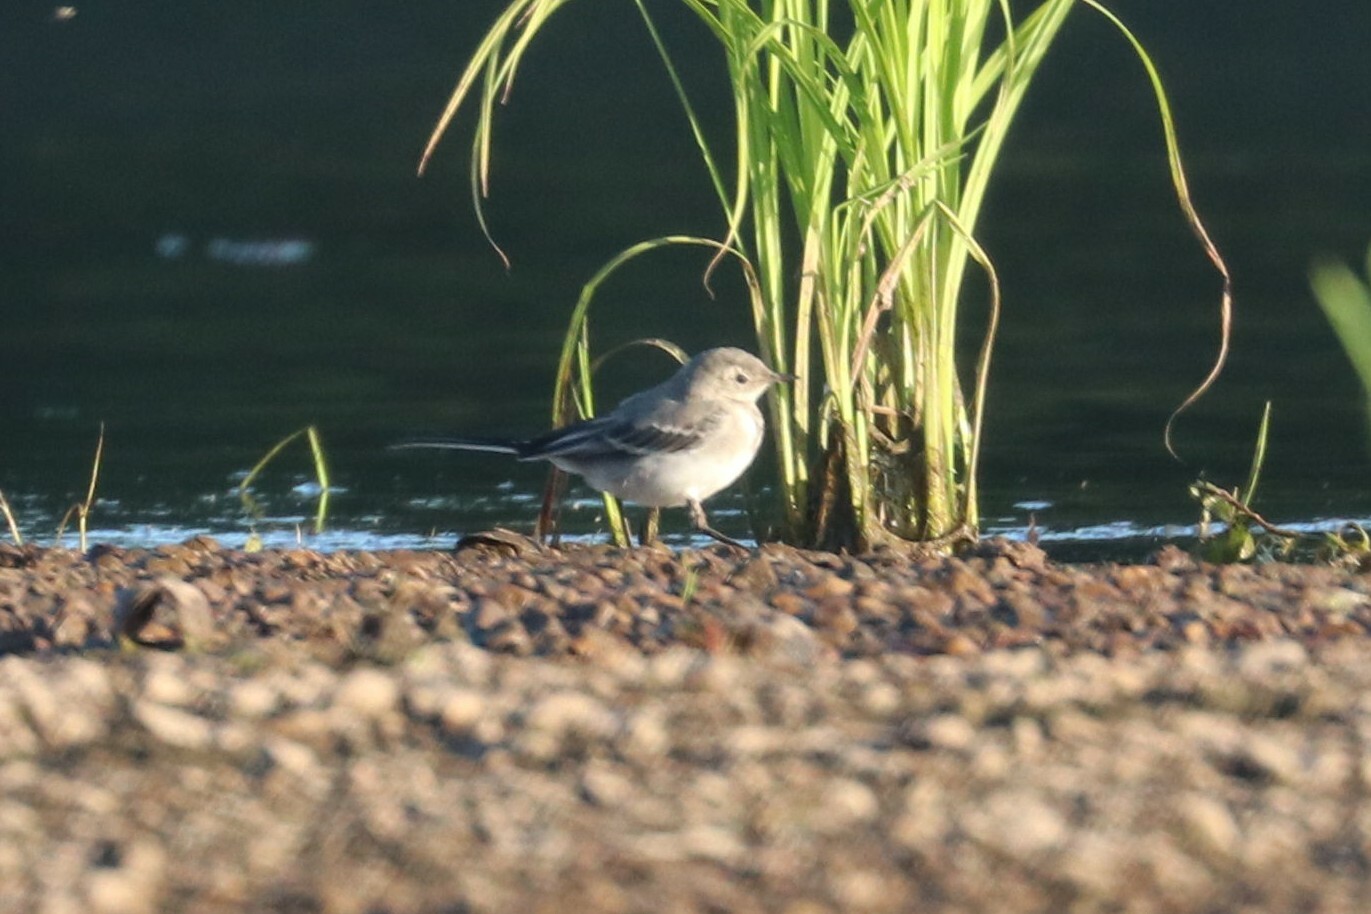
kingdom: Animalia
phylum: Chordata
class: Aves
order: Passeriformes
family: Motacillidae
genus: Motacilla
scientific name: Motacilla alba
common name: White wagtail
